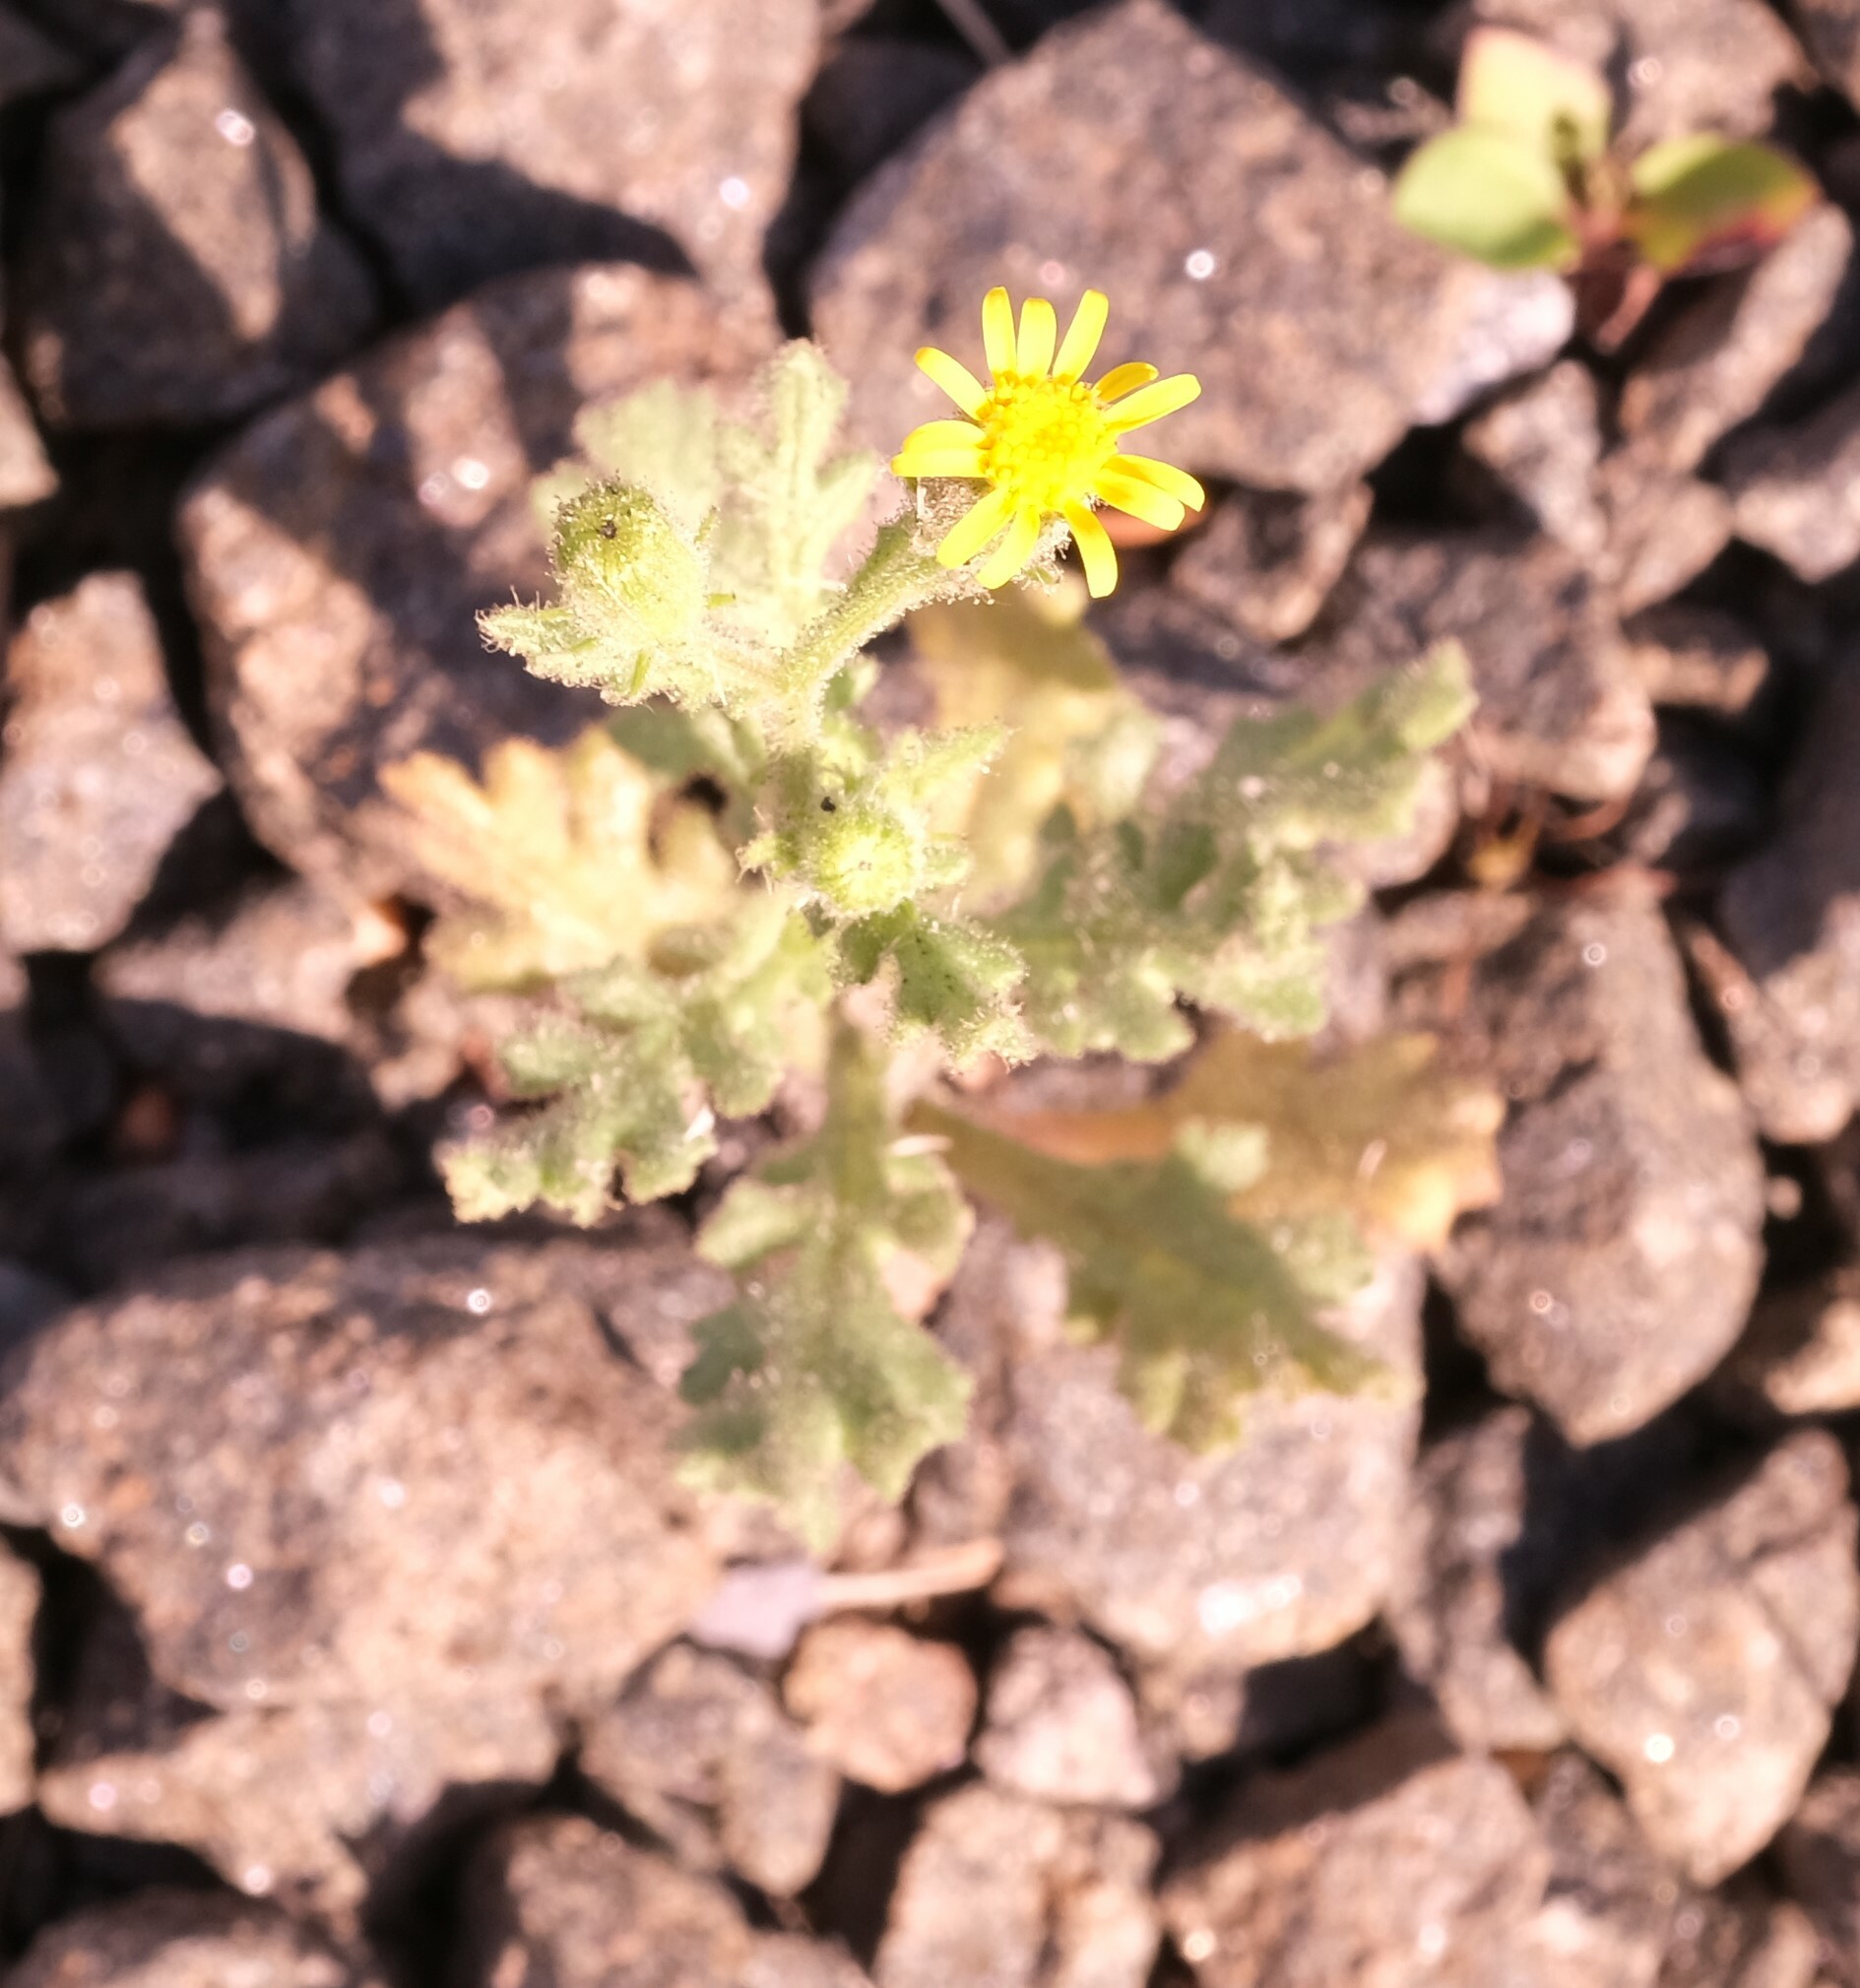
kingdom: Plantae
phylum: Tracheophyta
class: Magnoliopsida
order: Asterales
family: Asteraceae
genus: Senecio
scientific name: Senecio viscosus
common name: Sticky groundsel
